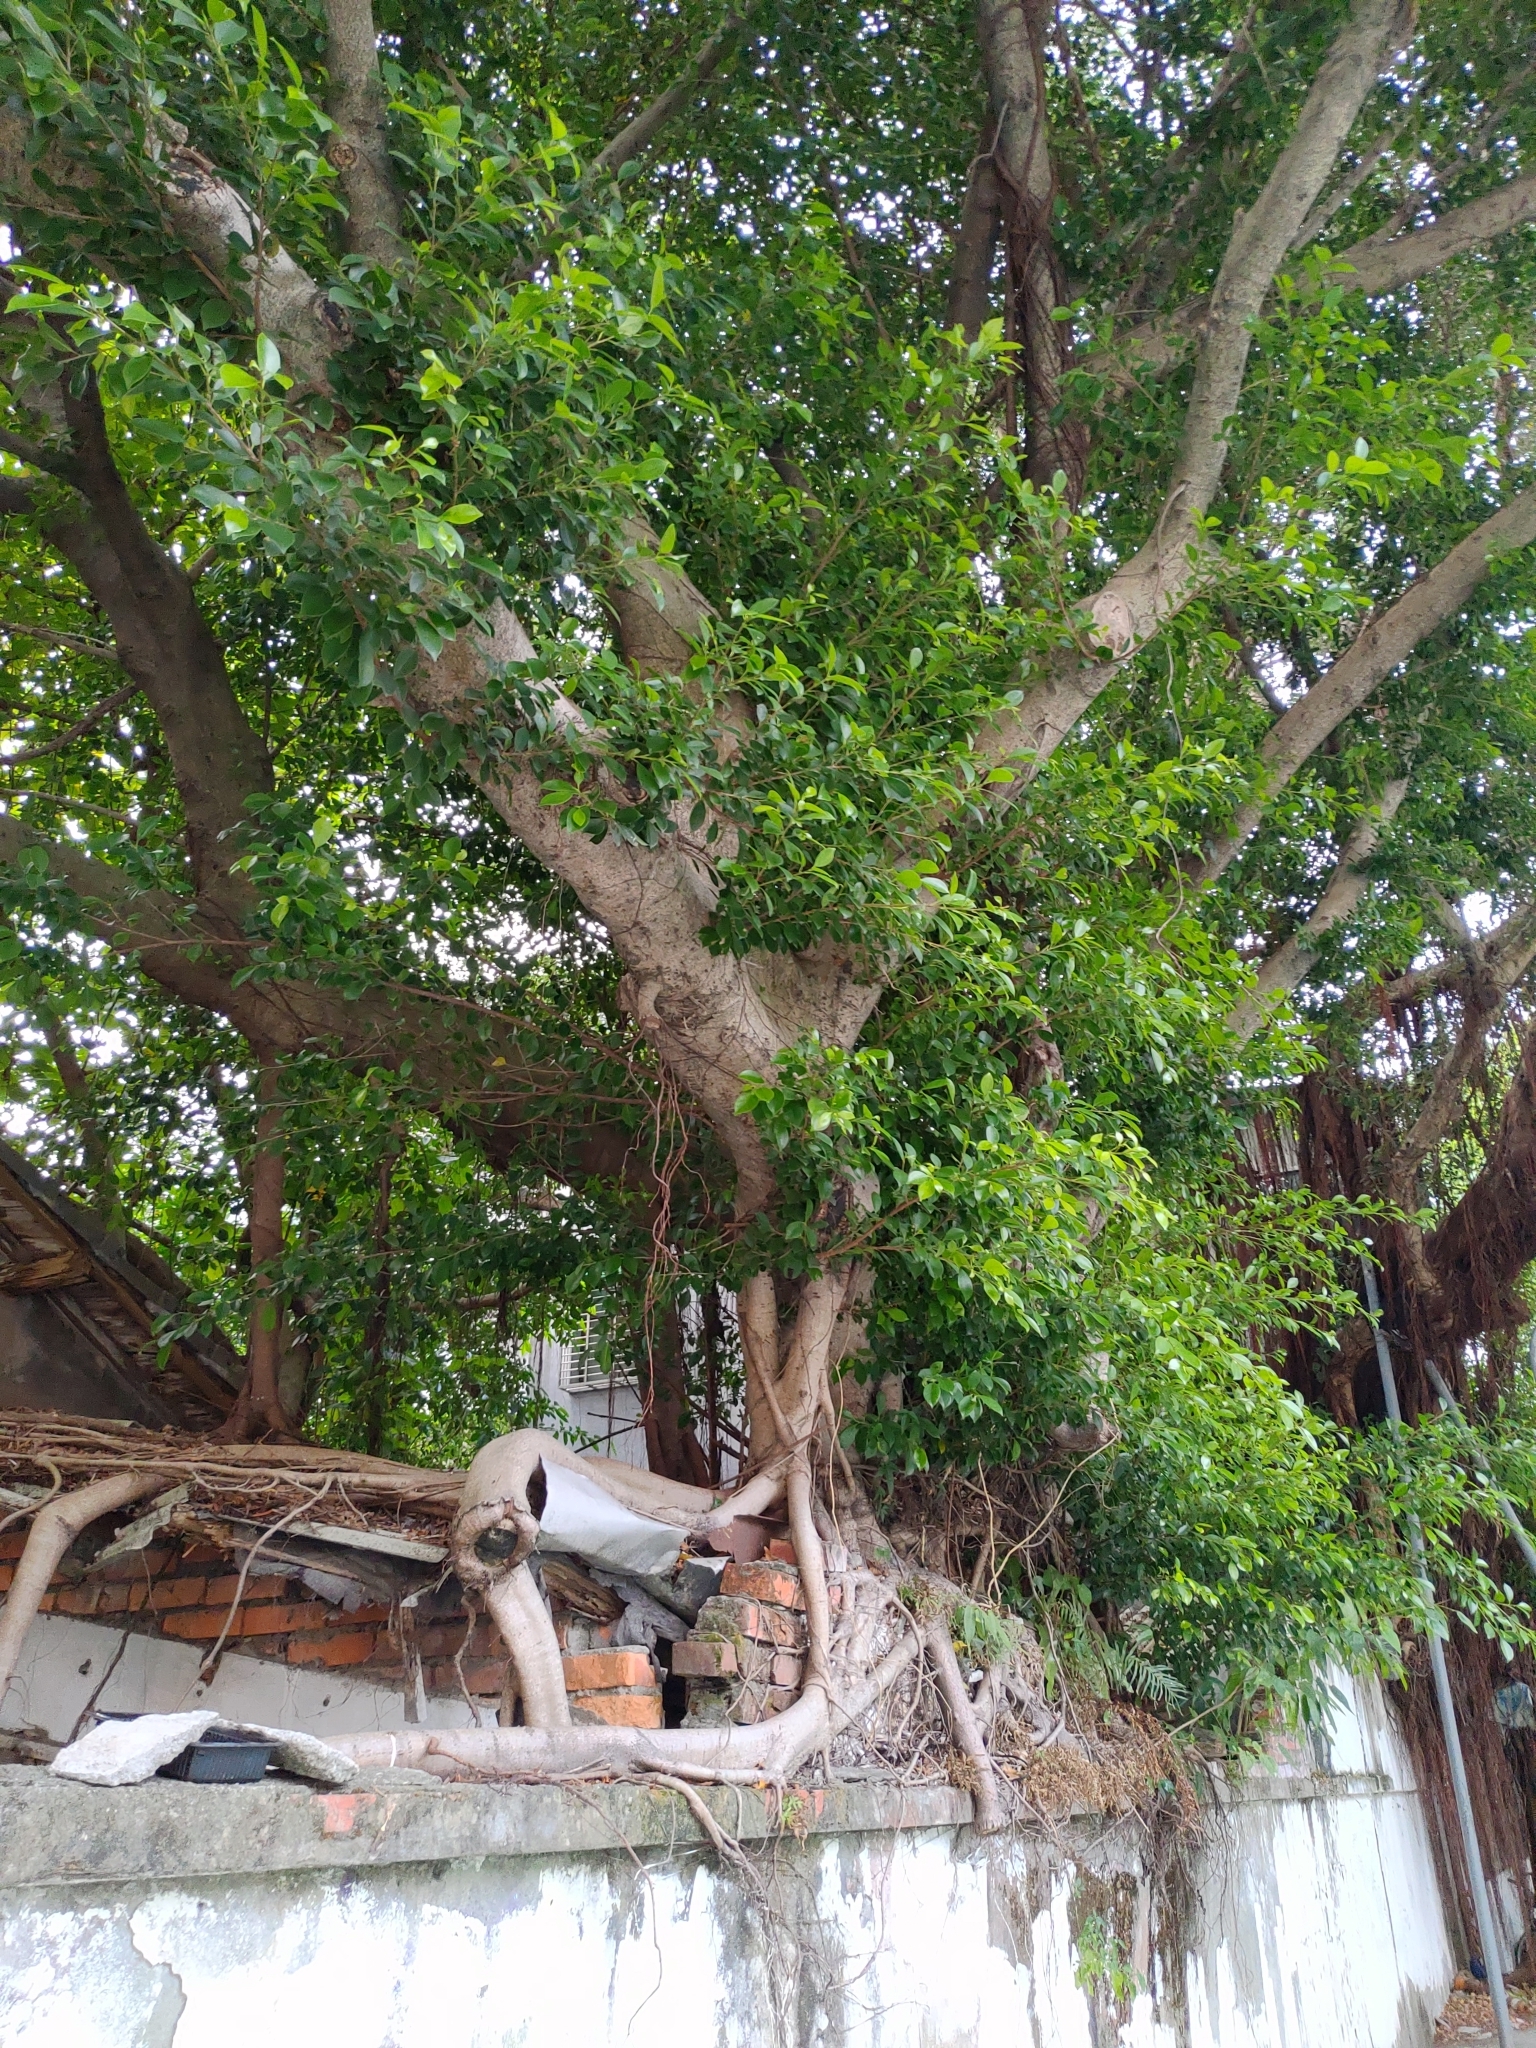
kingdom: Plantae
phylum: Tracheophyta
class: Magnoliopsida
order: Rosales
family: Moraceae
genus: Ficus
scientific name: Ficus microcarpa
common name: Chinese banyan
